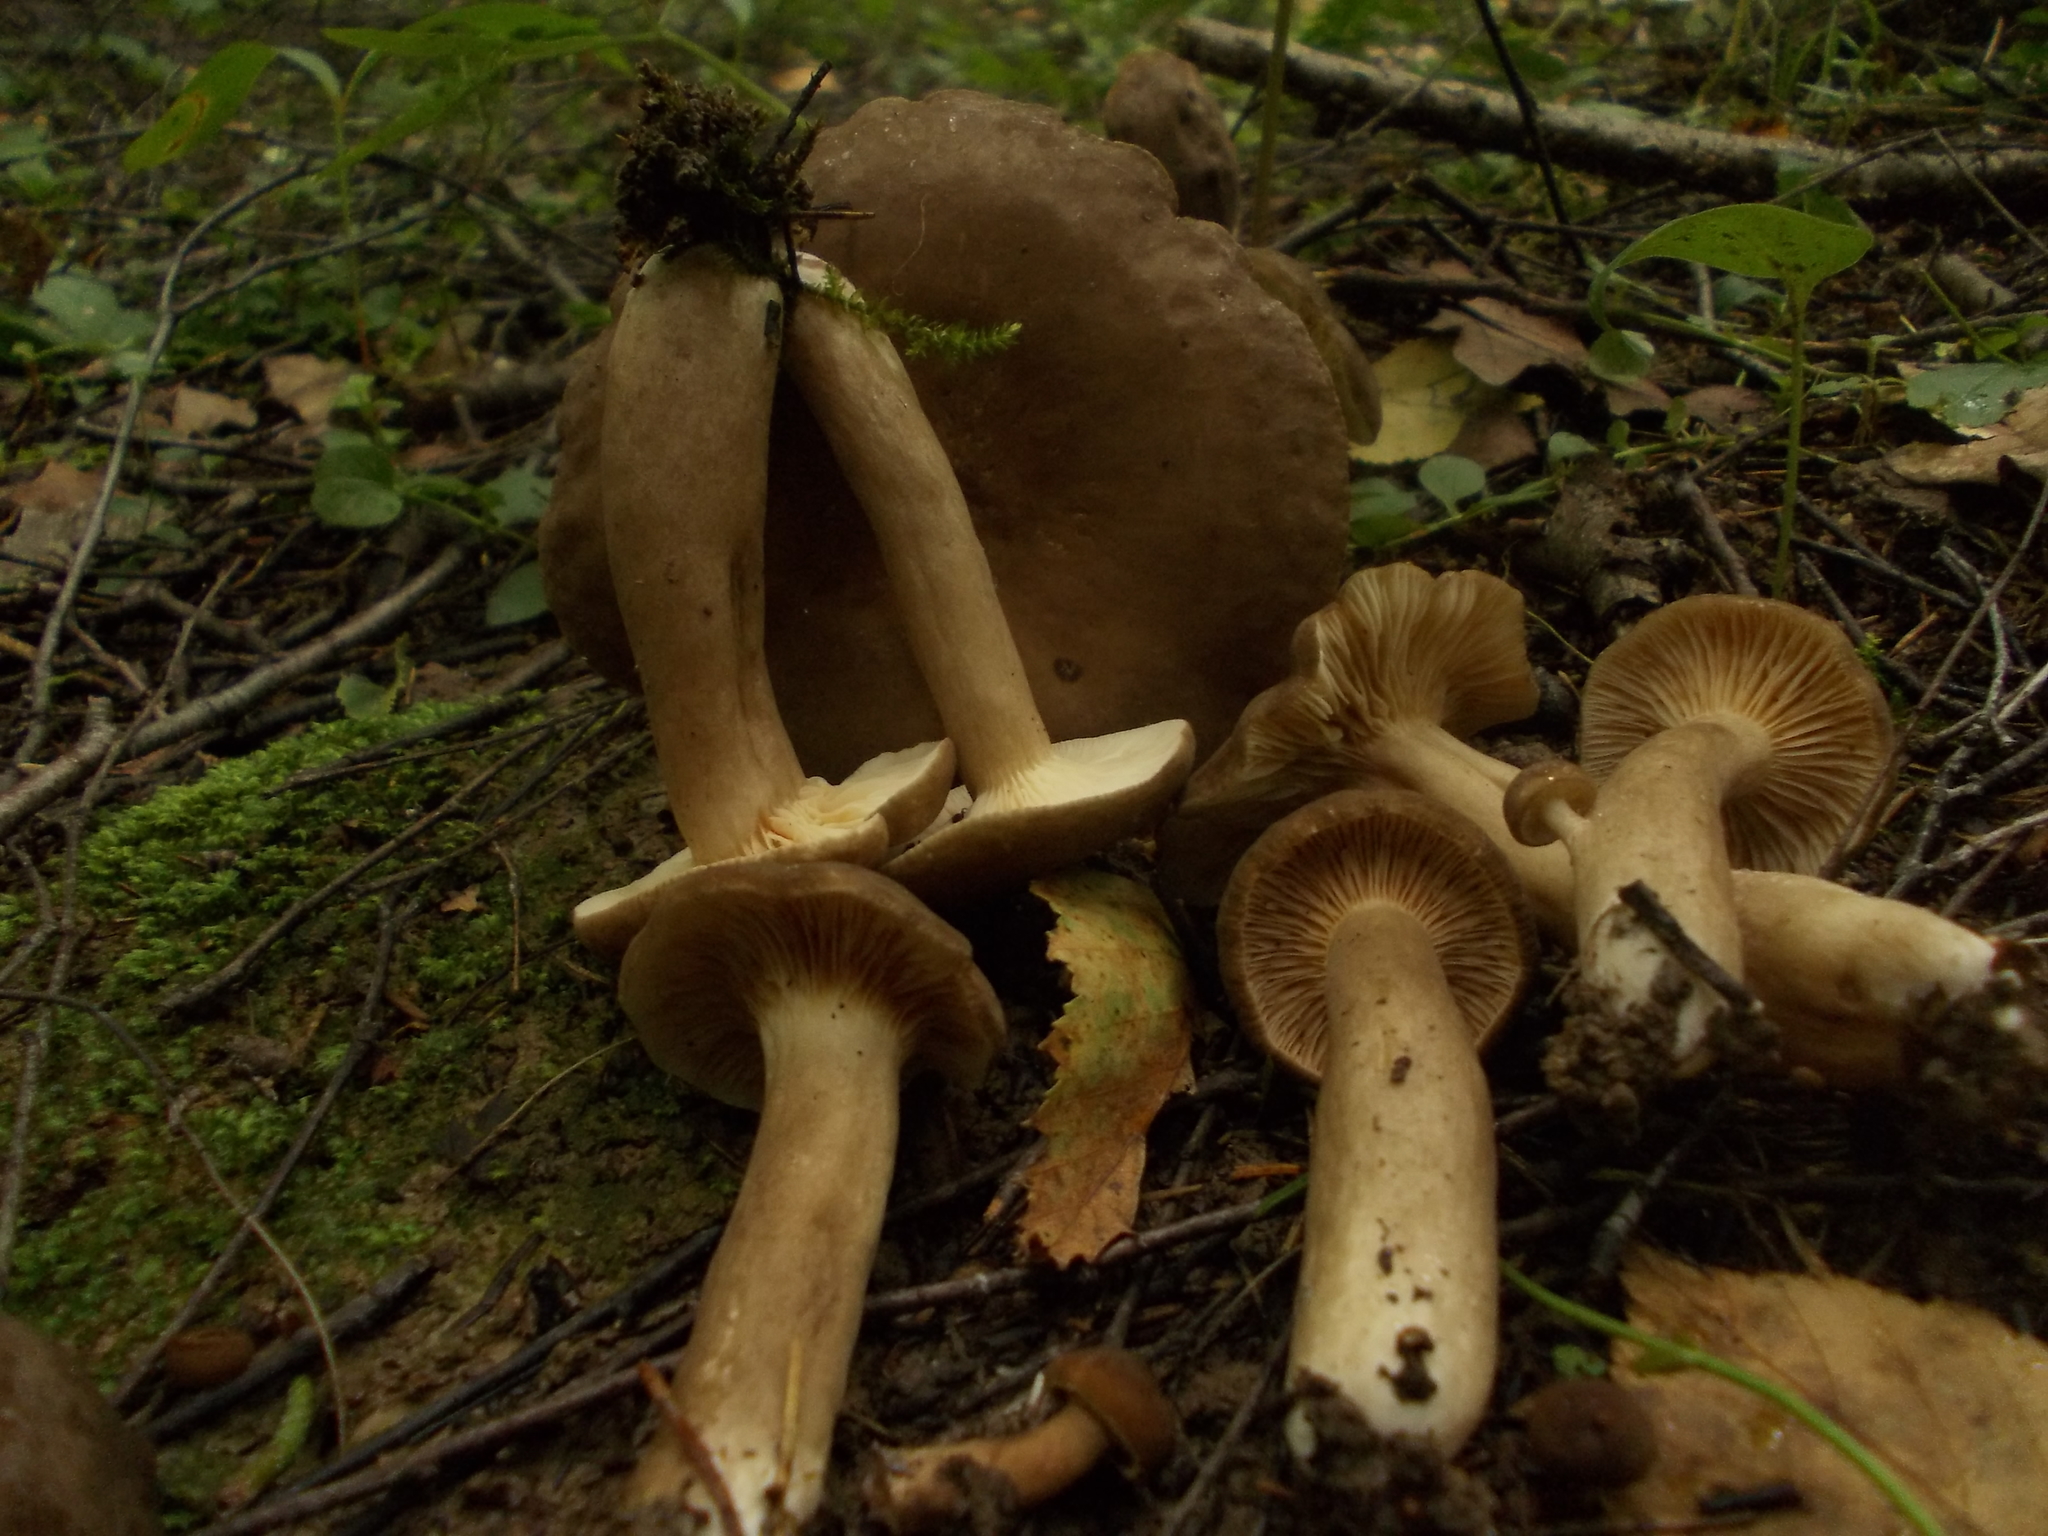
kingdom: Fungi
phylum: Basidiomycota
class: Agaricomycetes
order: Russulales
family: Russulaceae
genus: Lactarius
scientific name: Lactarius fuliginosus
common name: Sooty milkcap
